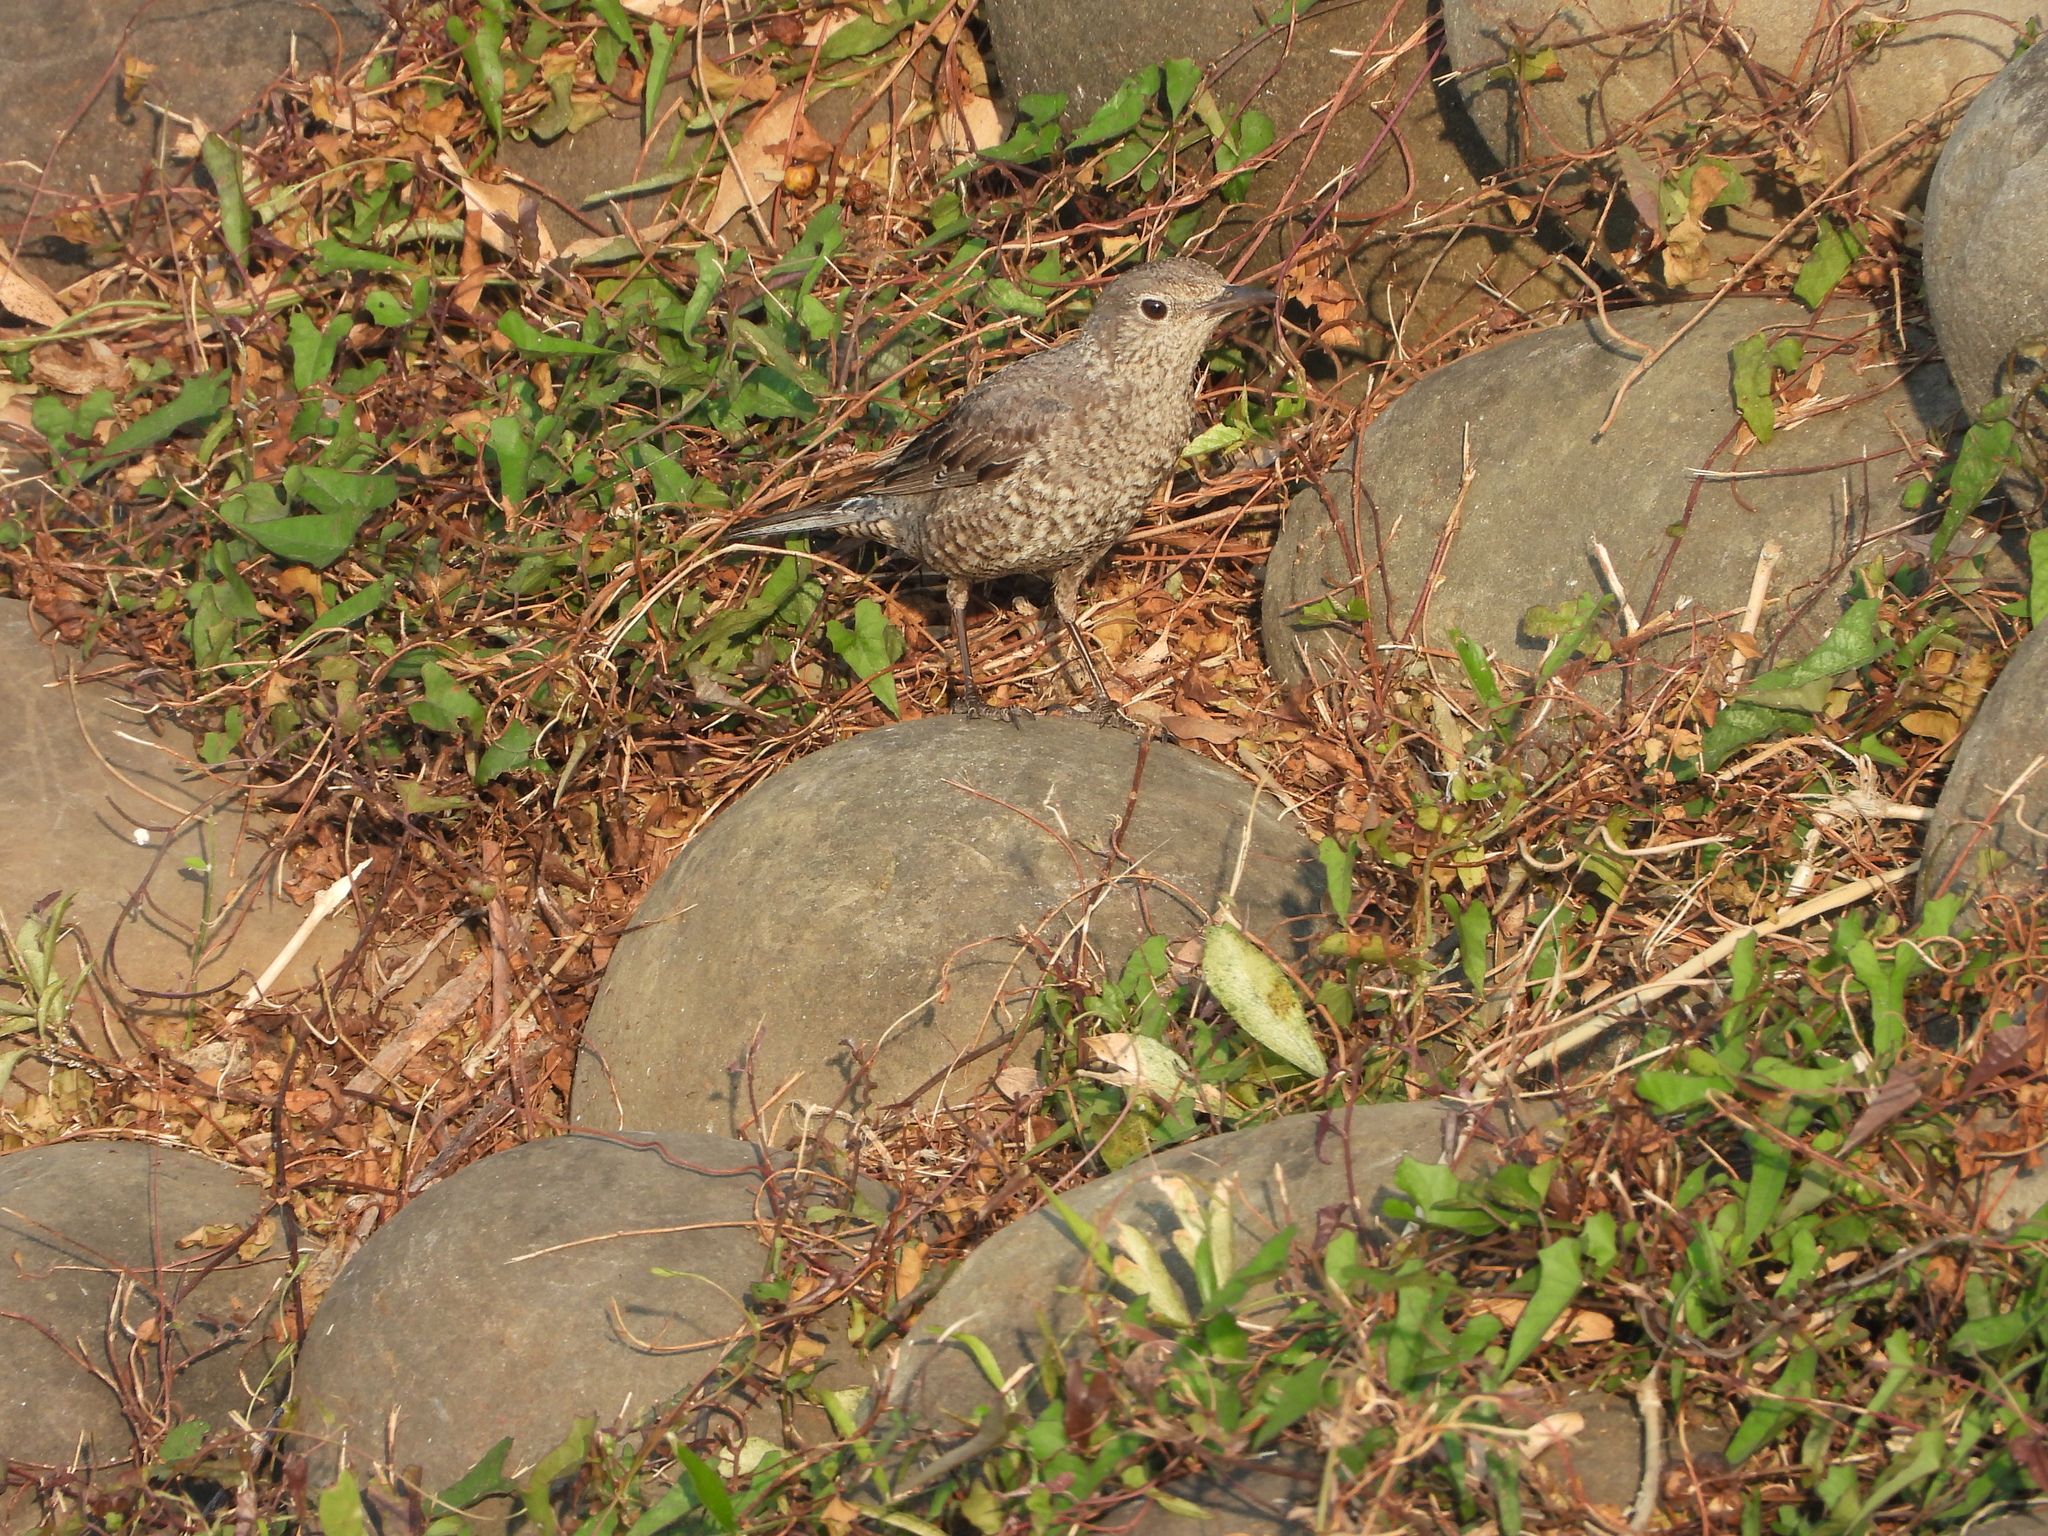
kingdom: Animalia
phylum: Chordata
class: Aves
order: Passeriformes
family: Muscicapidae
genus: Monticola
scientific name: Monticola solitarius
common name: Blue rock thrush
